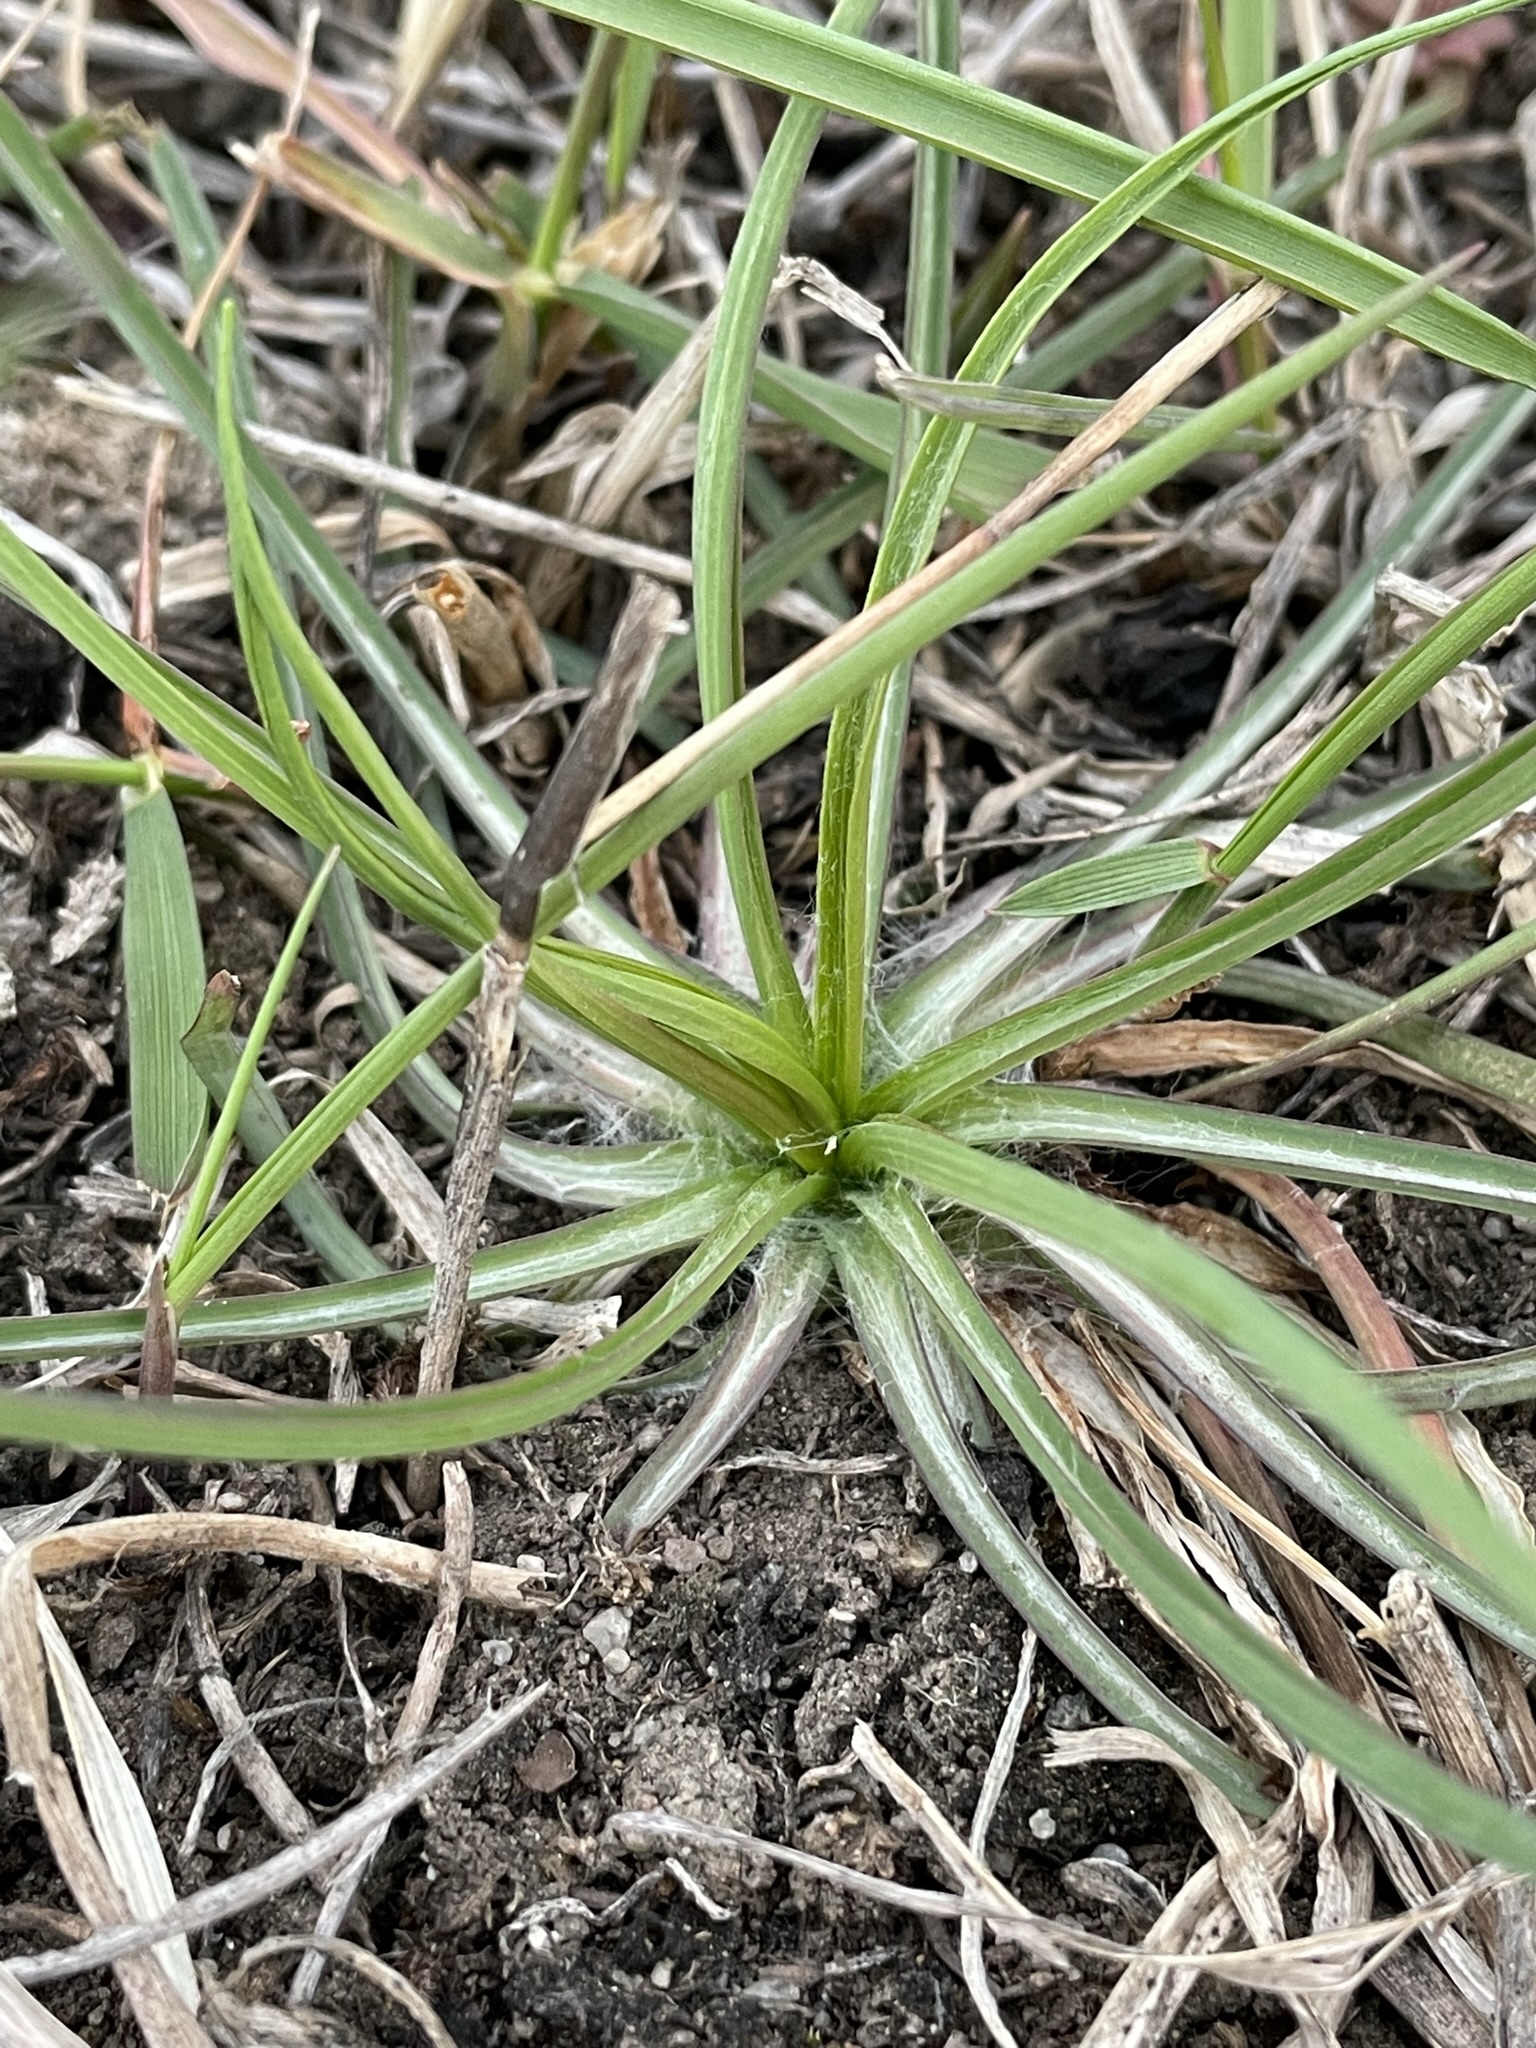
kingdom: Plantae
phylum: Tracheophyta
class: Magnoliopsida
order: Asterales
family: Asteraceae
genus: Tragopogon
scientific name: Tragopogon dubius
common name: Yellow salsify
